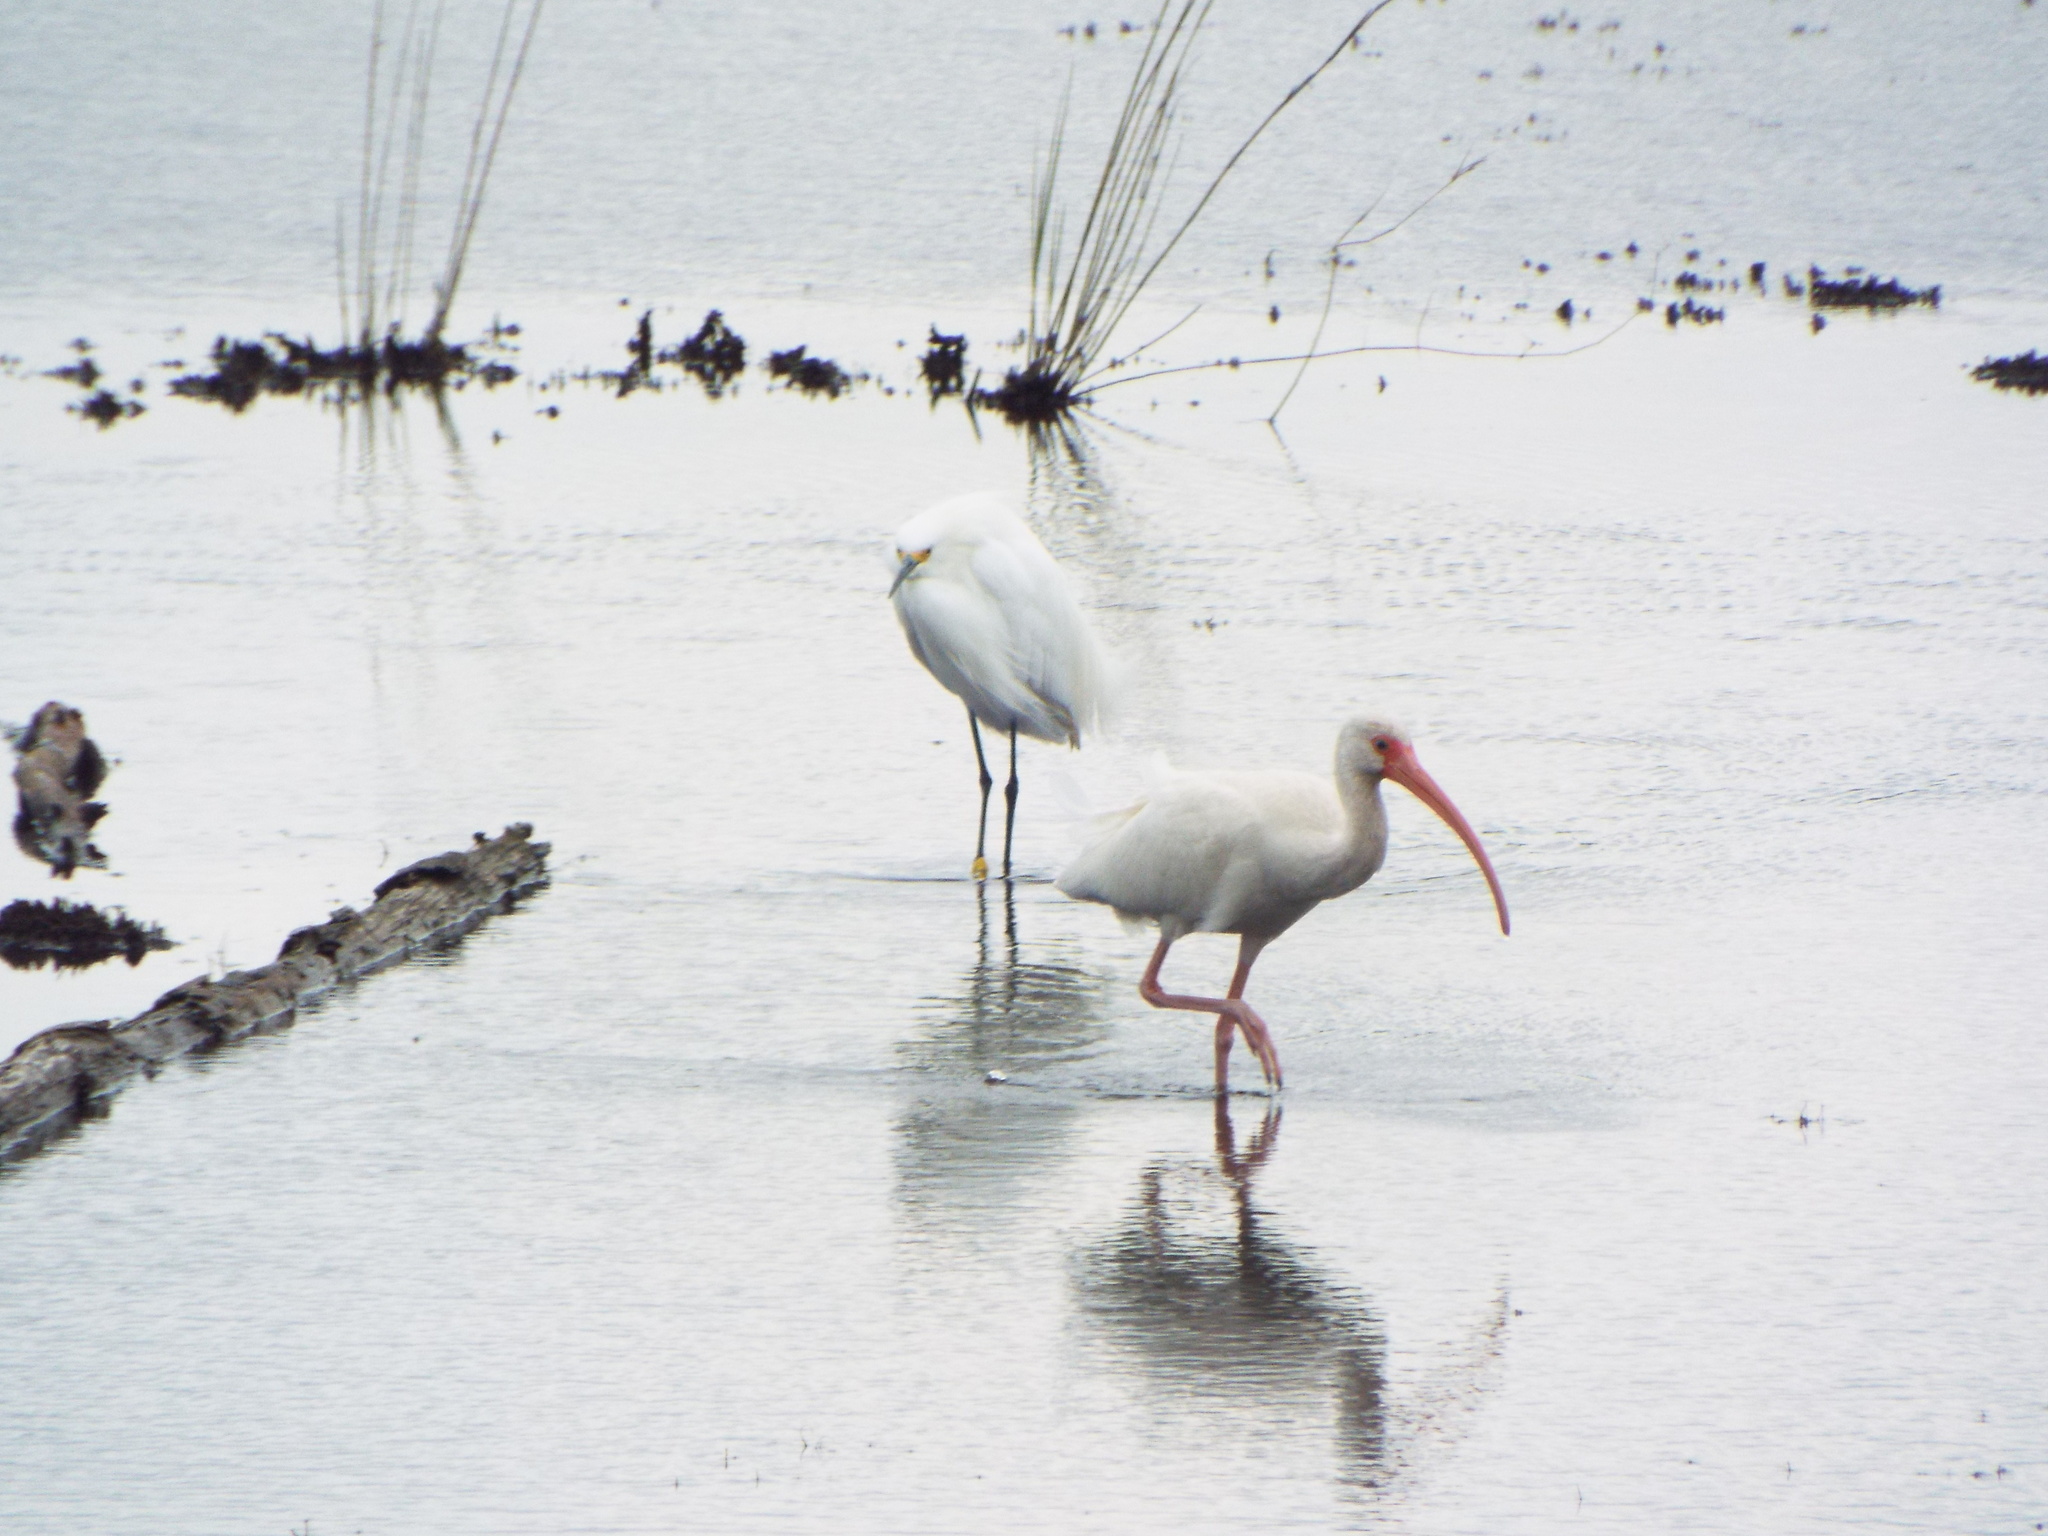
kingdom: Animalia
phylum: Chordata
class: Aves
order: Pelecaniformes
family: Threskiornithidae
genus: Eudocimus
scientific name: Eudocimus albus
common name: White ibis
